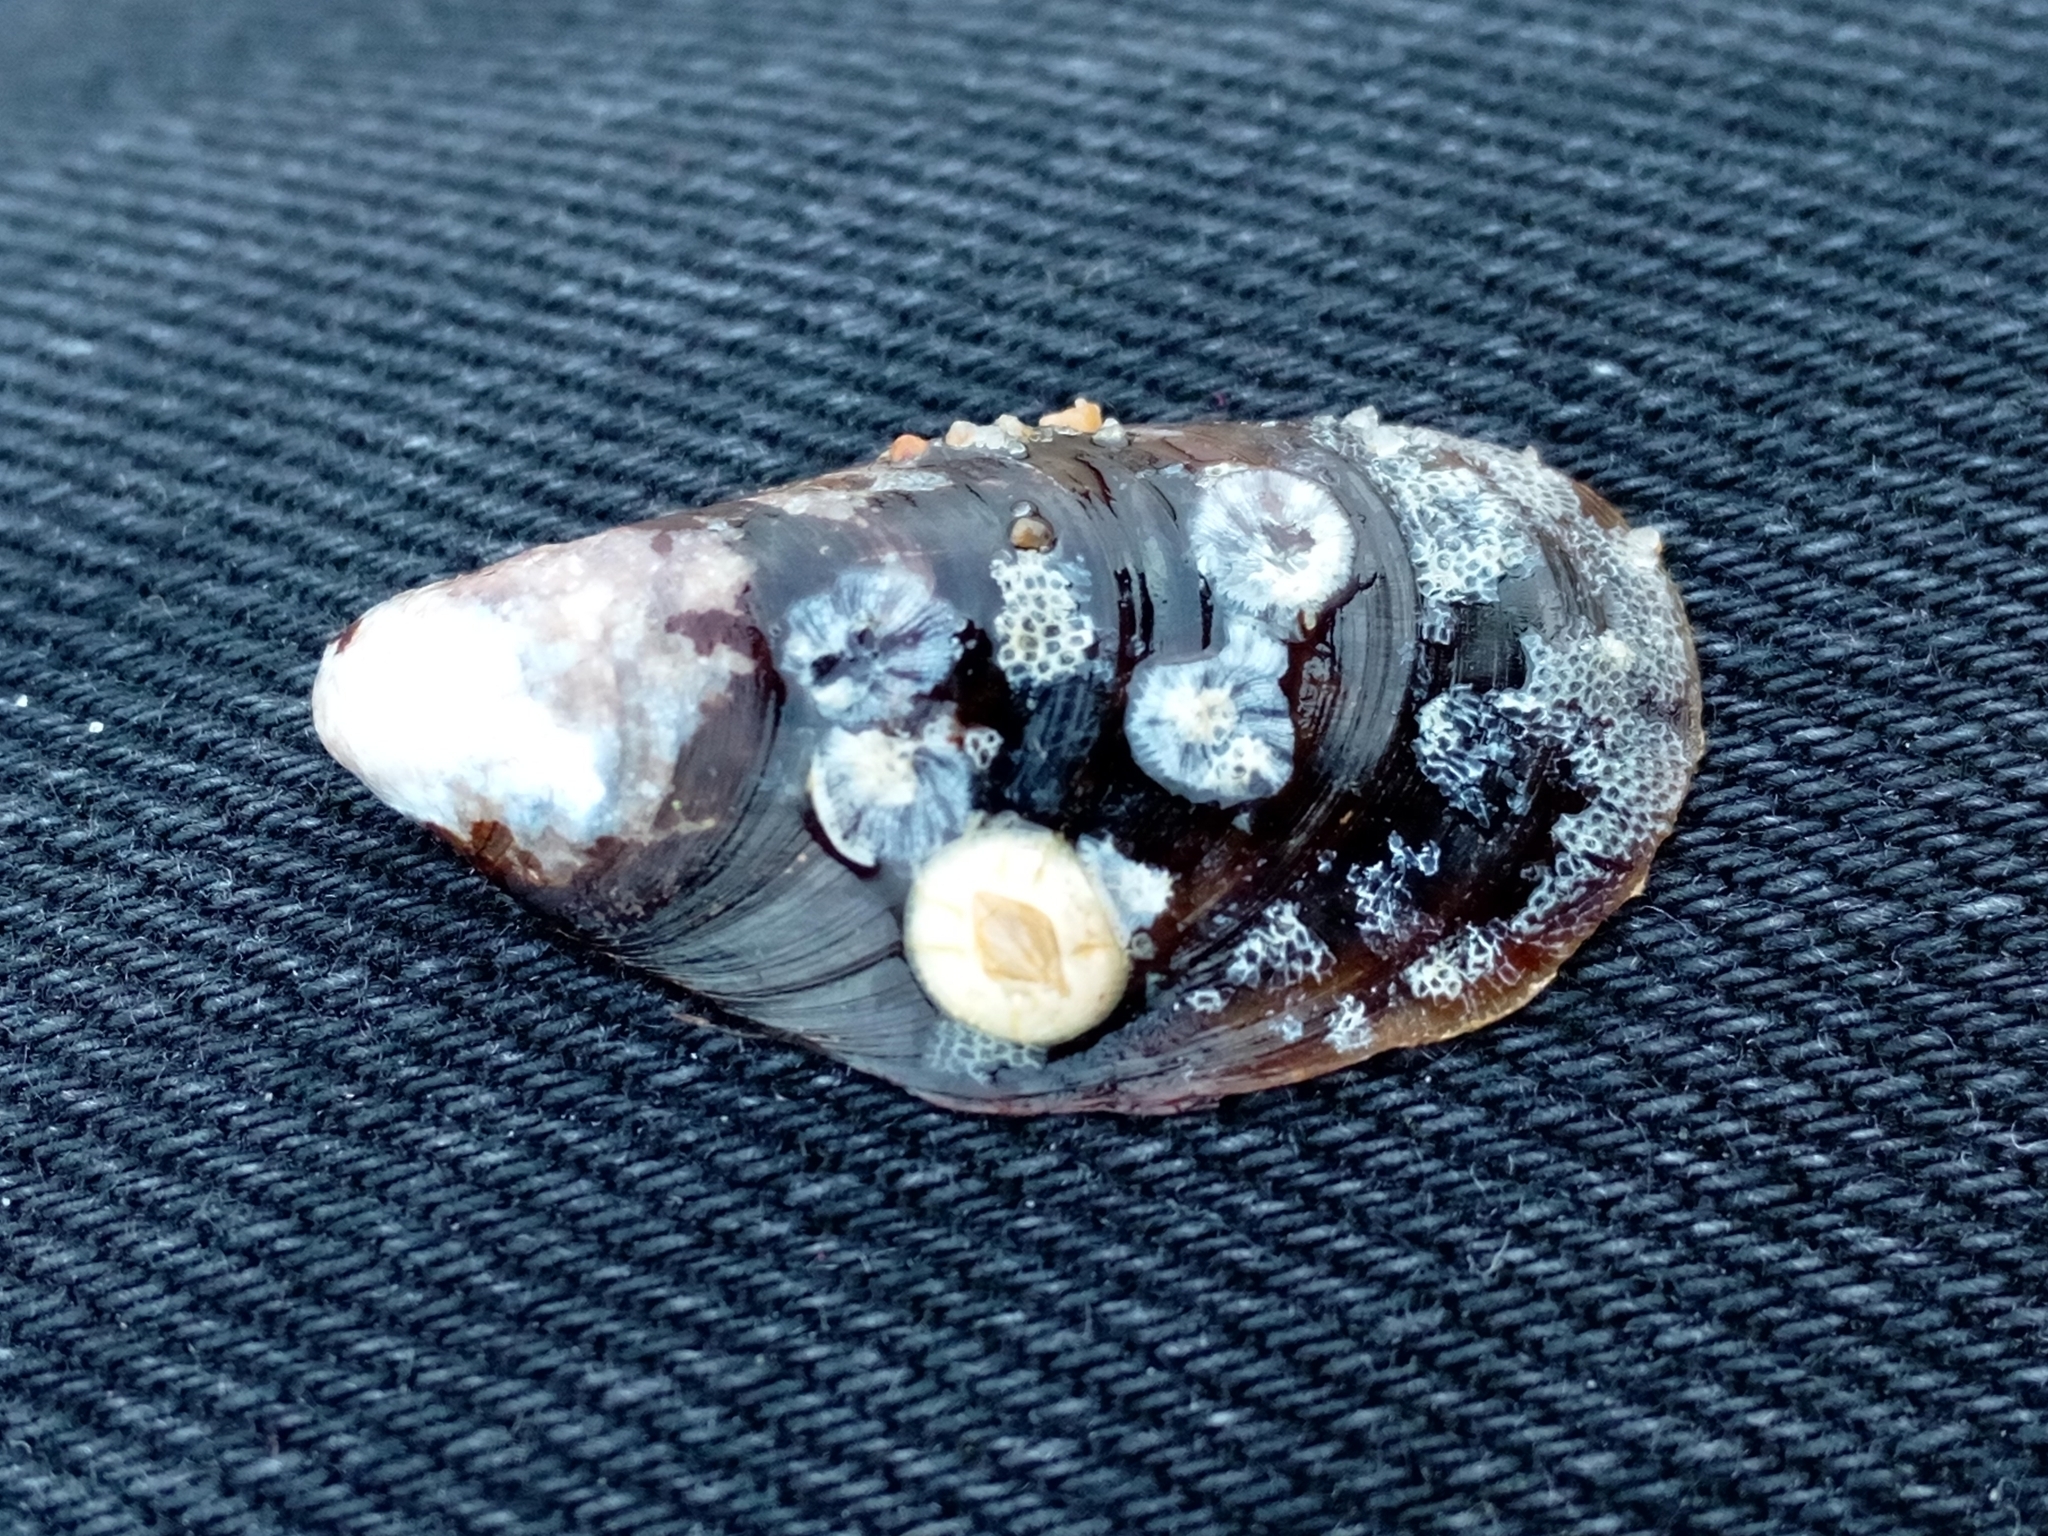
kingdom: Animalia
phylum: Arthropoda
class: Maxillopoda
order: Sessilia
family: Balanidae
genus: Amphibalanus
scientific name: Amphibalanus improvisus
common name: Bay barnacle
